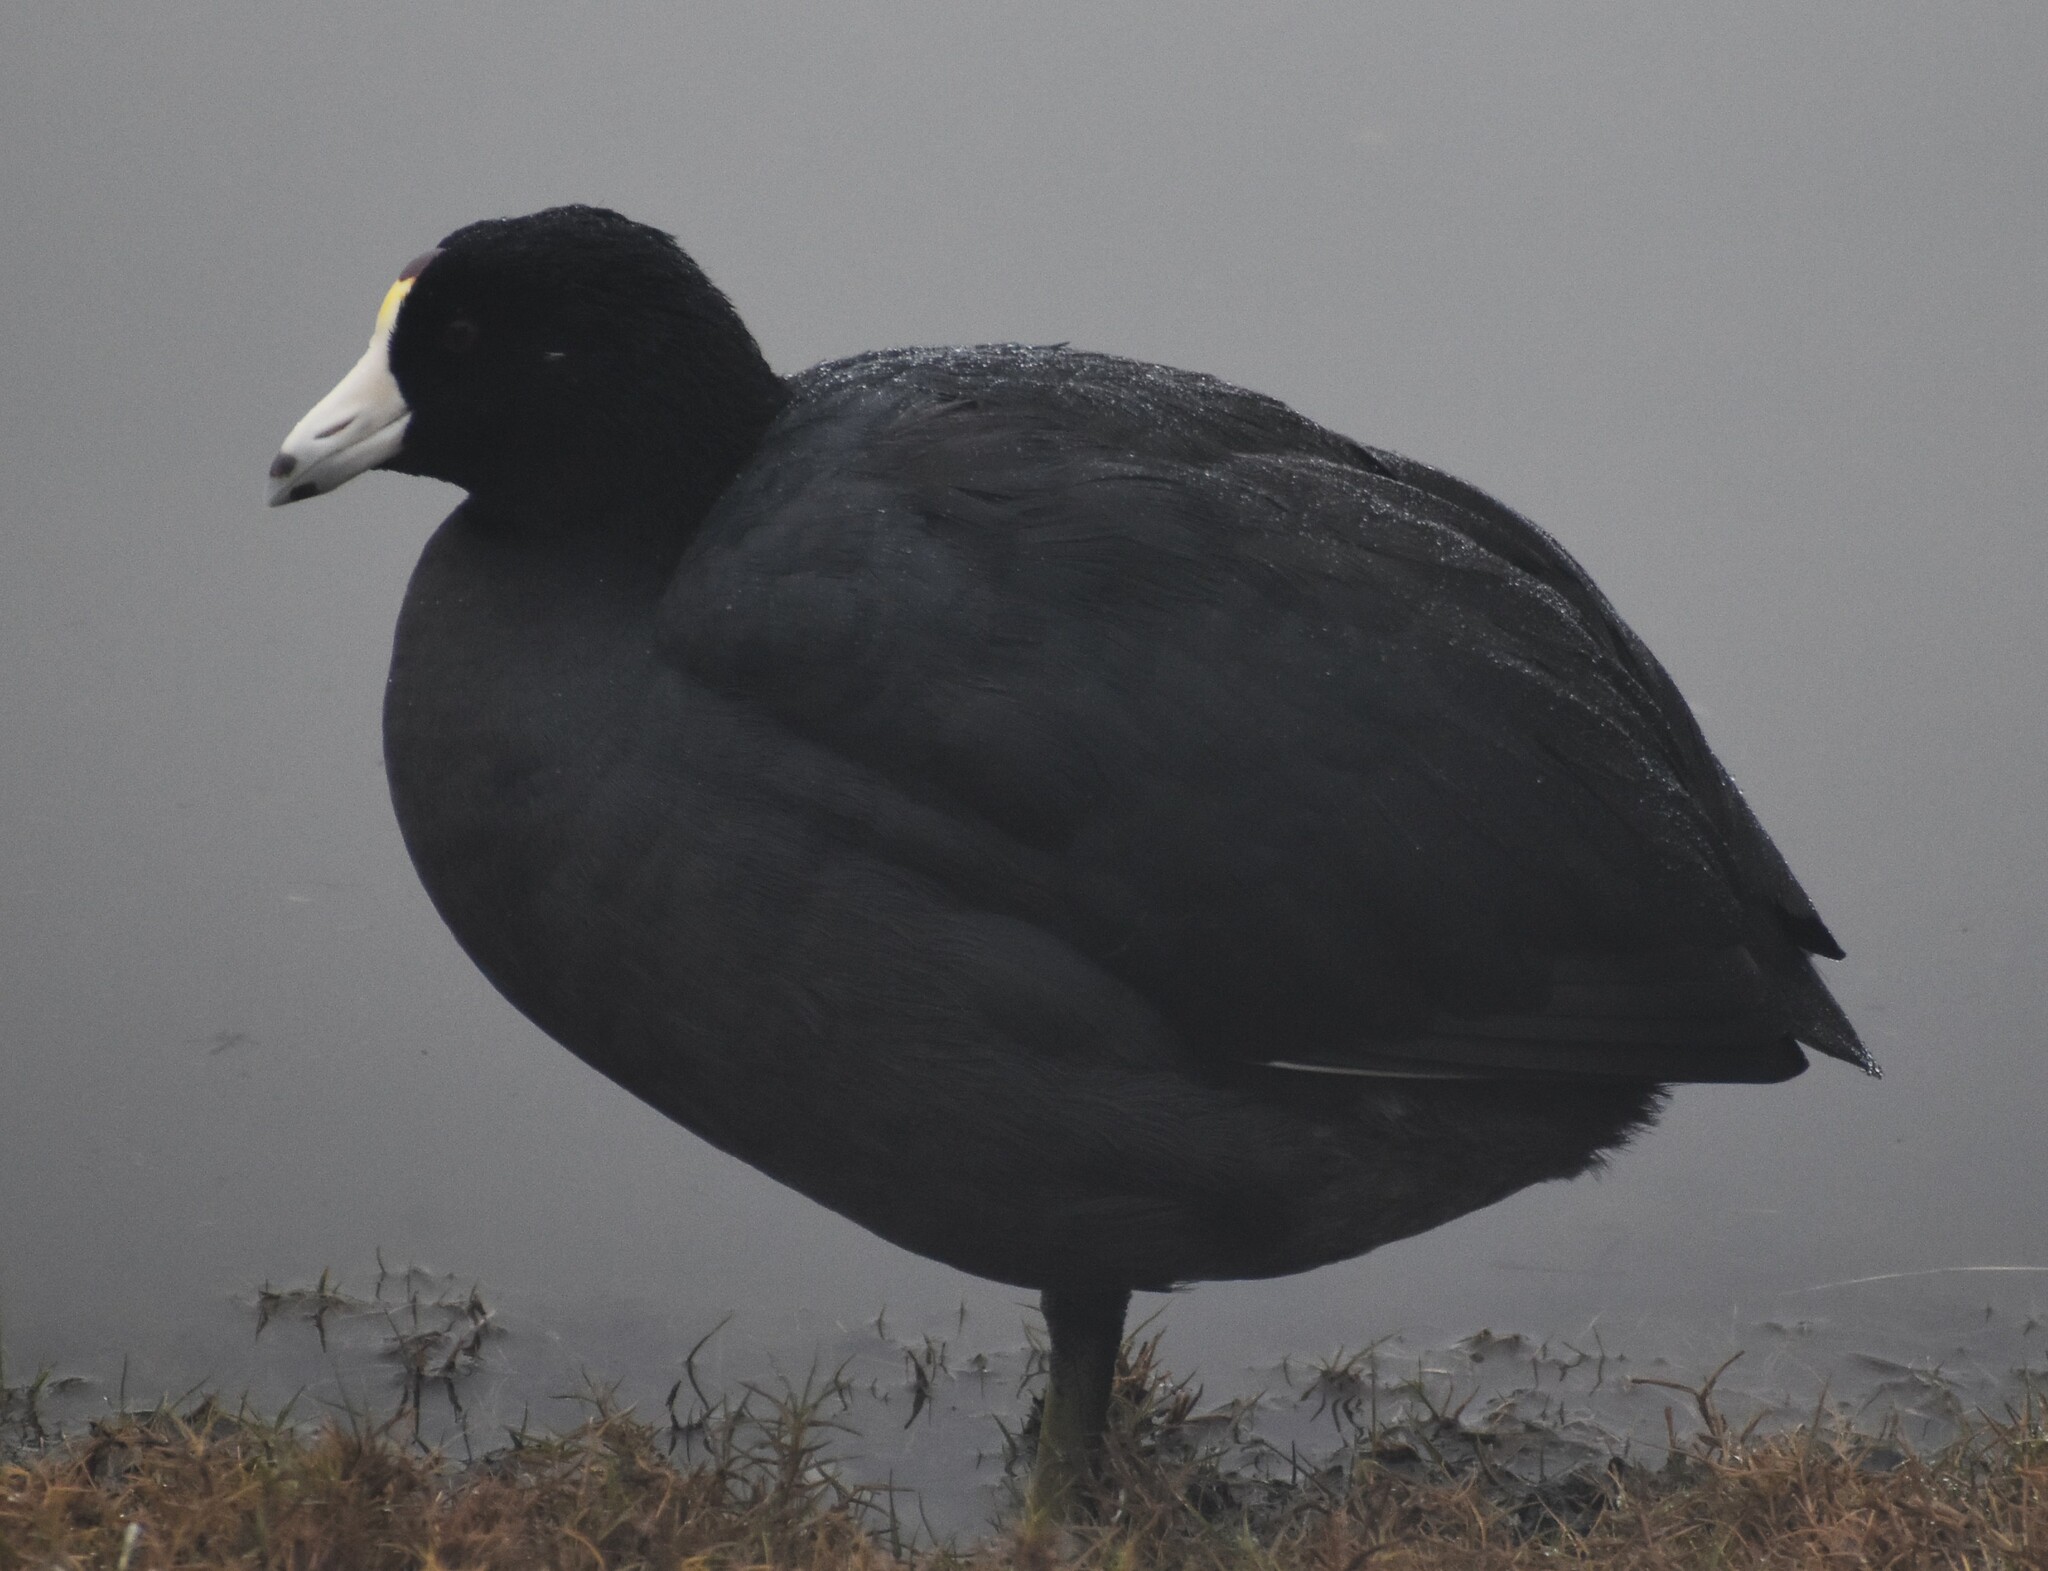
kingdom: Animalia
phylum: Chordata
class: Aves
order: Gruiformes
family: Rallidae
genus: Fulica
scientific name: Fulica americana
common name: American coot
